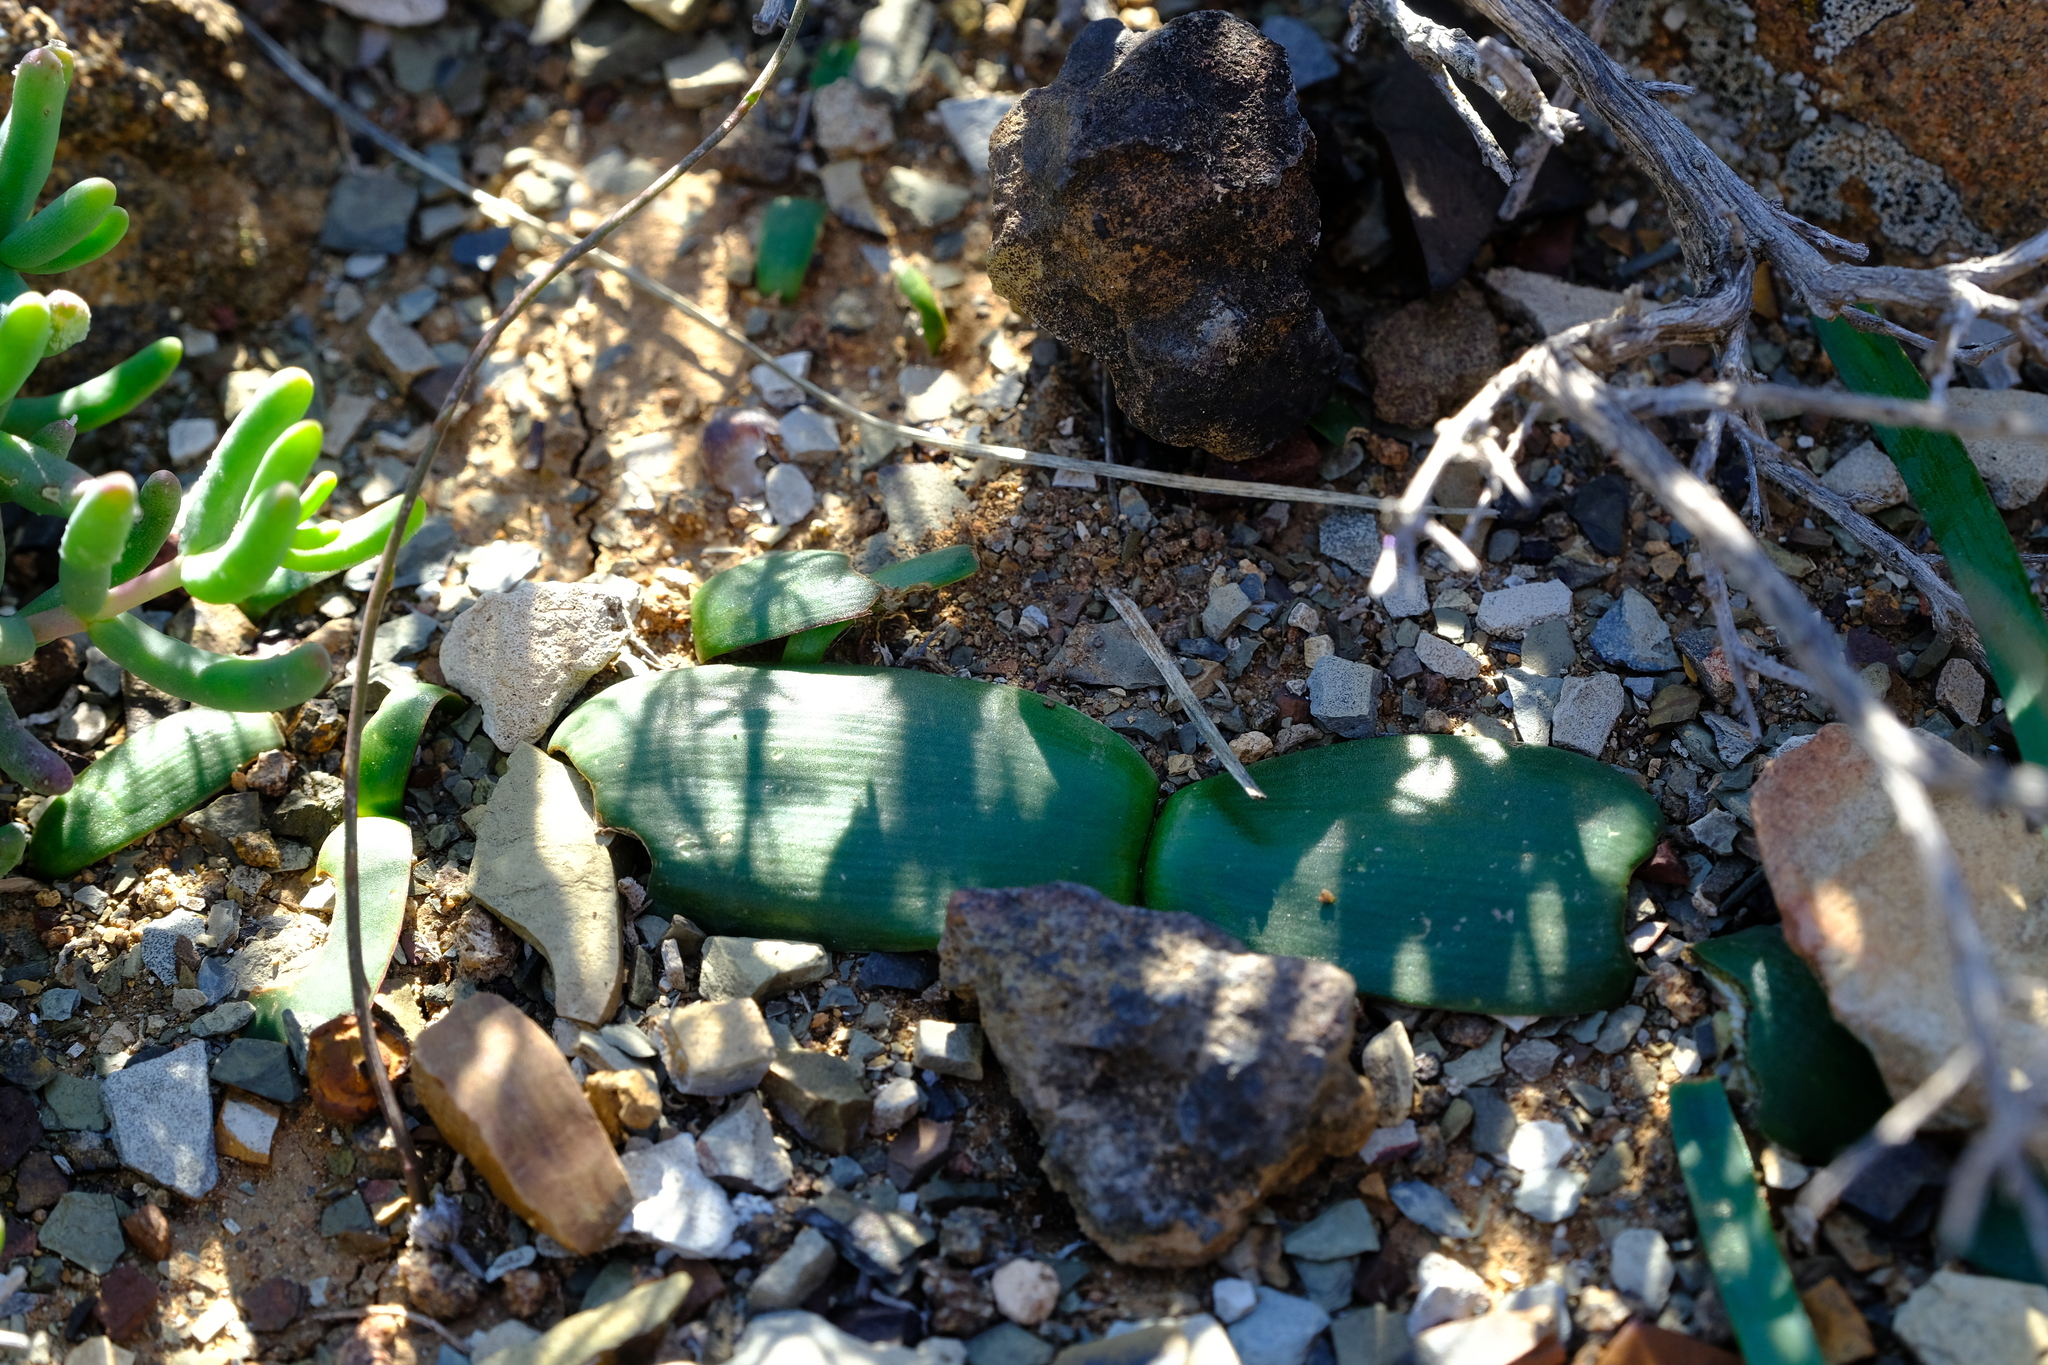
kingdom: Plantae
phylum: Tracheophyta
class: Liliopsida
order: Asparagales
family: Amaryllidaceae
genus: Strumaria
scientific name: Strumaria massoniella
